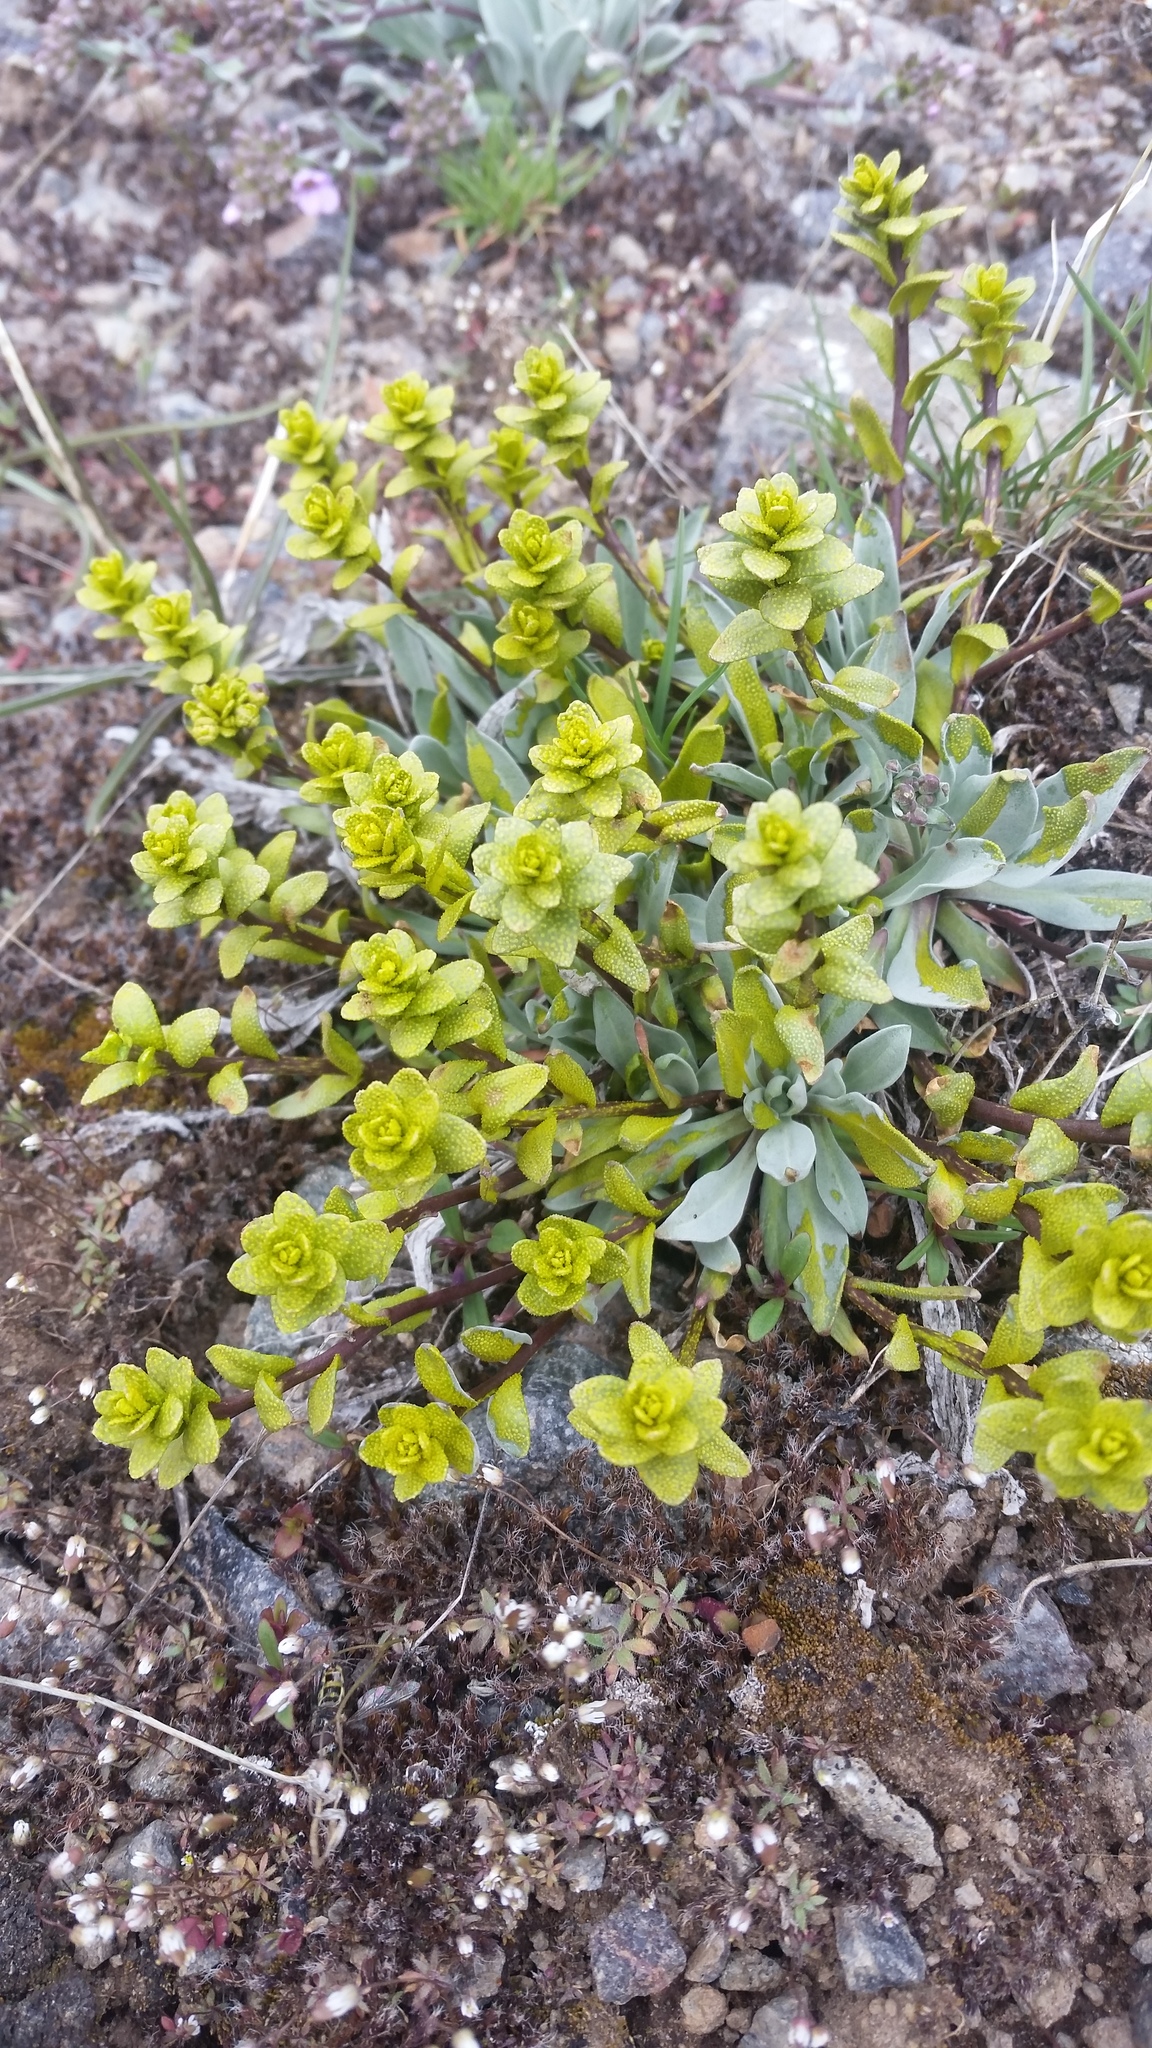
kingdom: Plantae
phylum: Tracheophyta
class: Magnoliopsida
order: Brassicales
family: Brassicaceae
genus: Phoenicaulis
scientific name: Phoenicaulis cheiranthoides
